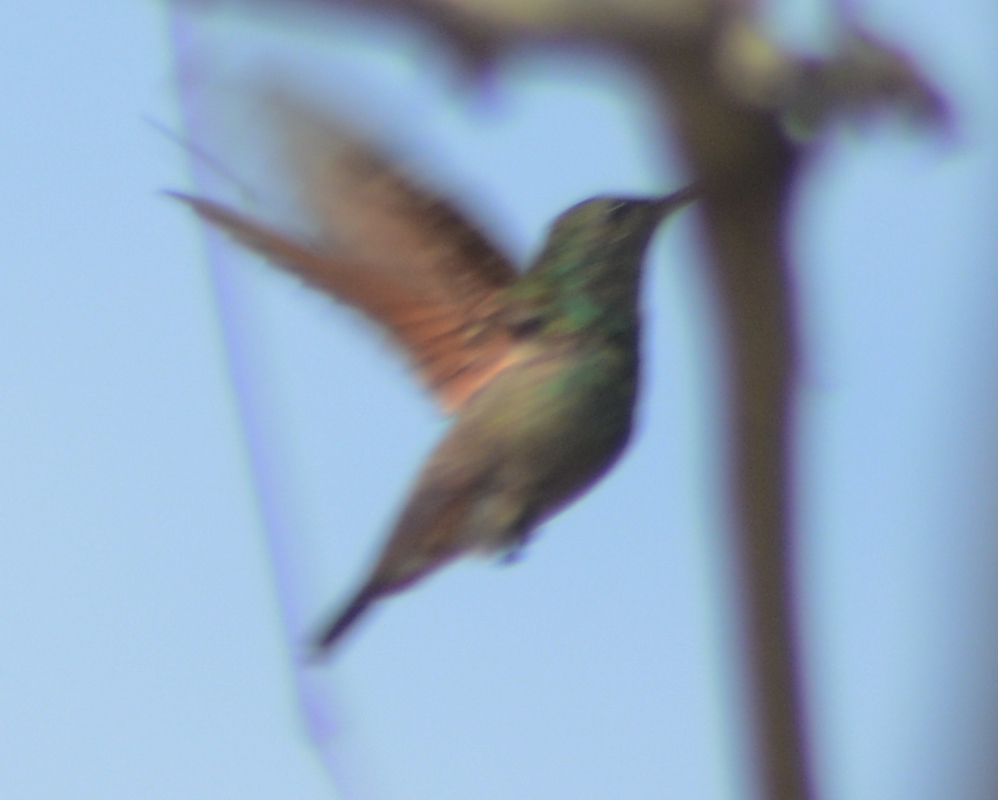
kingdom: Animalia
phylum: Chordata
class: Aves
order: Apodiformes
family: Trochilidae
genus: Saucerottia
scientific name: Saucerottia beryllina
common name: Berylline hummingbird
